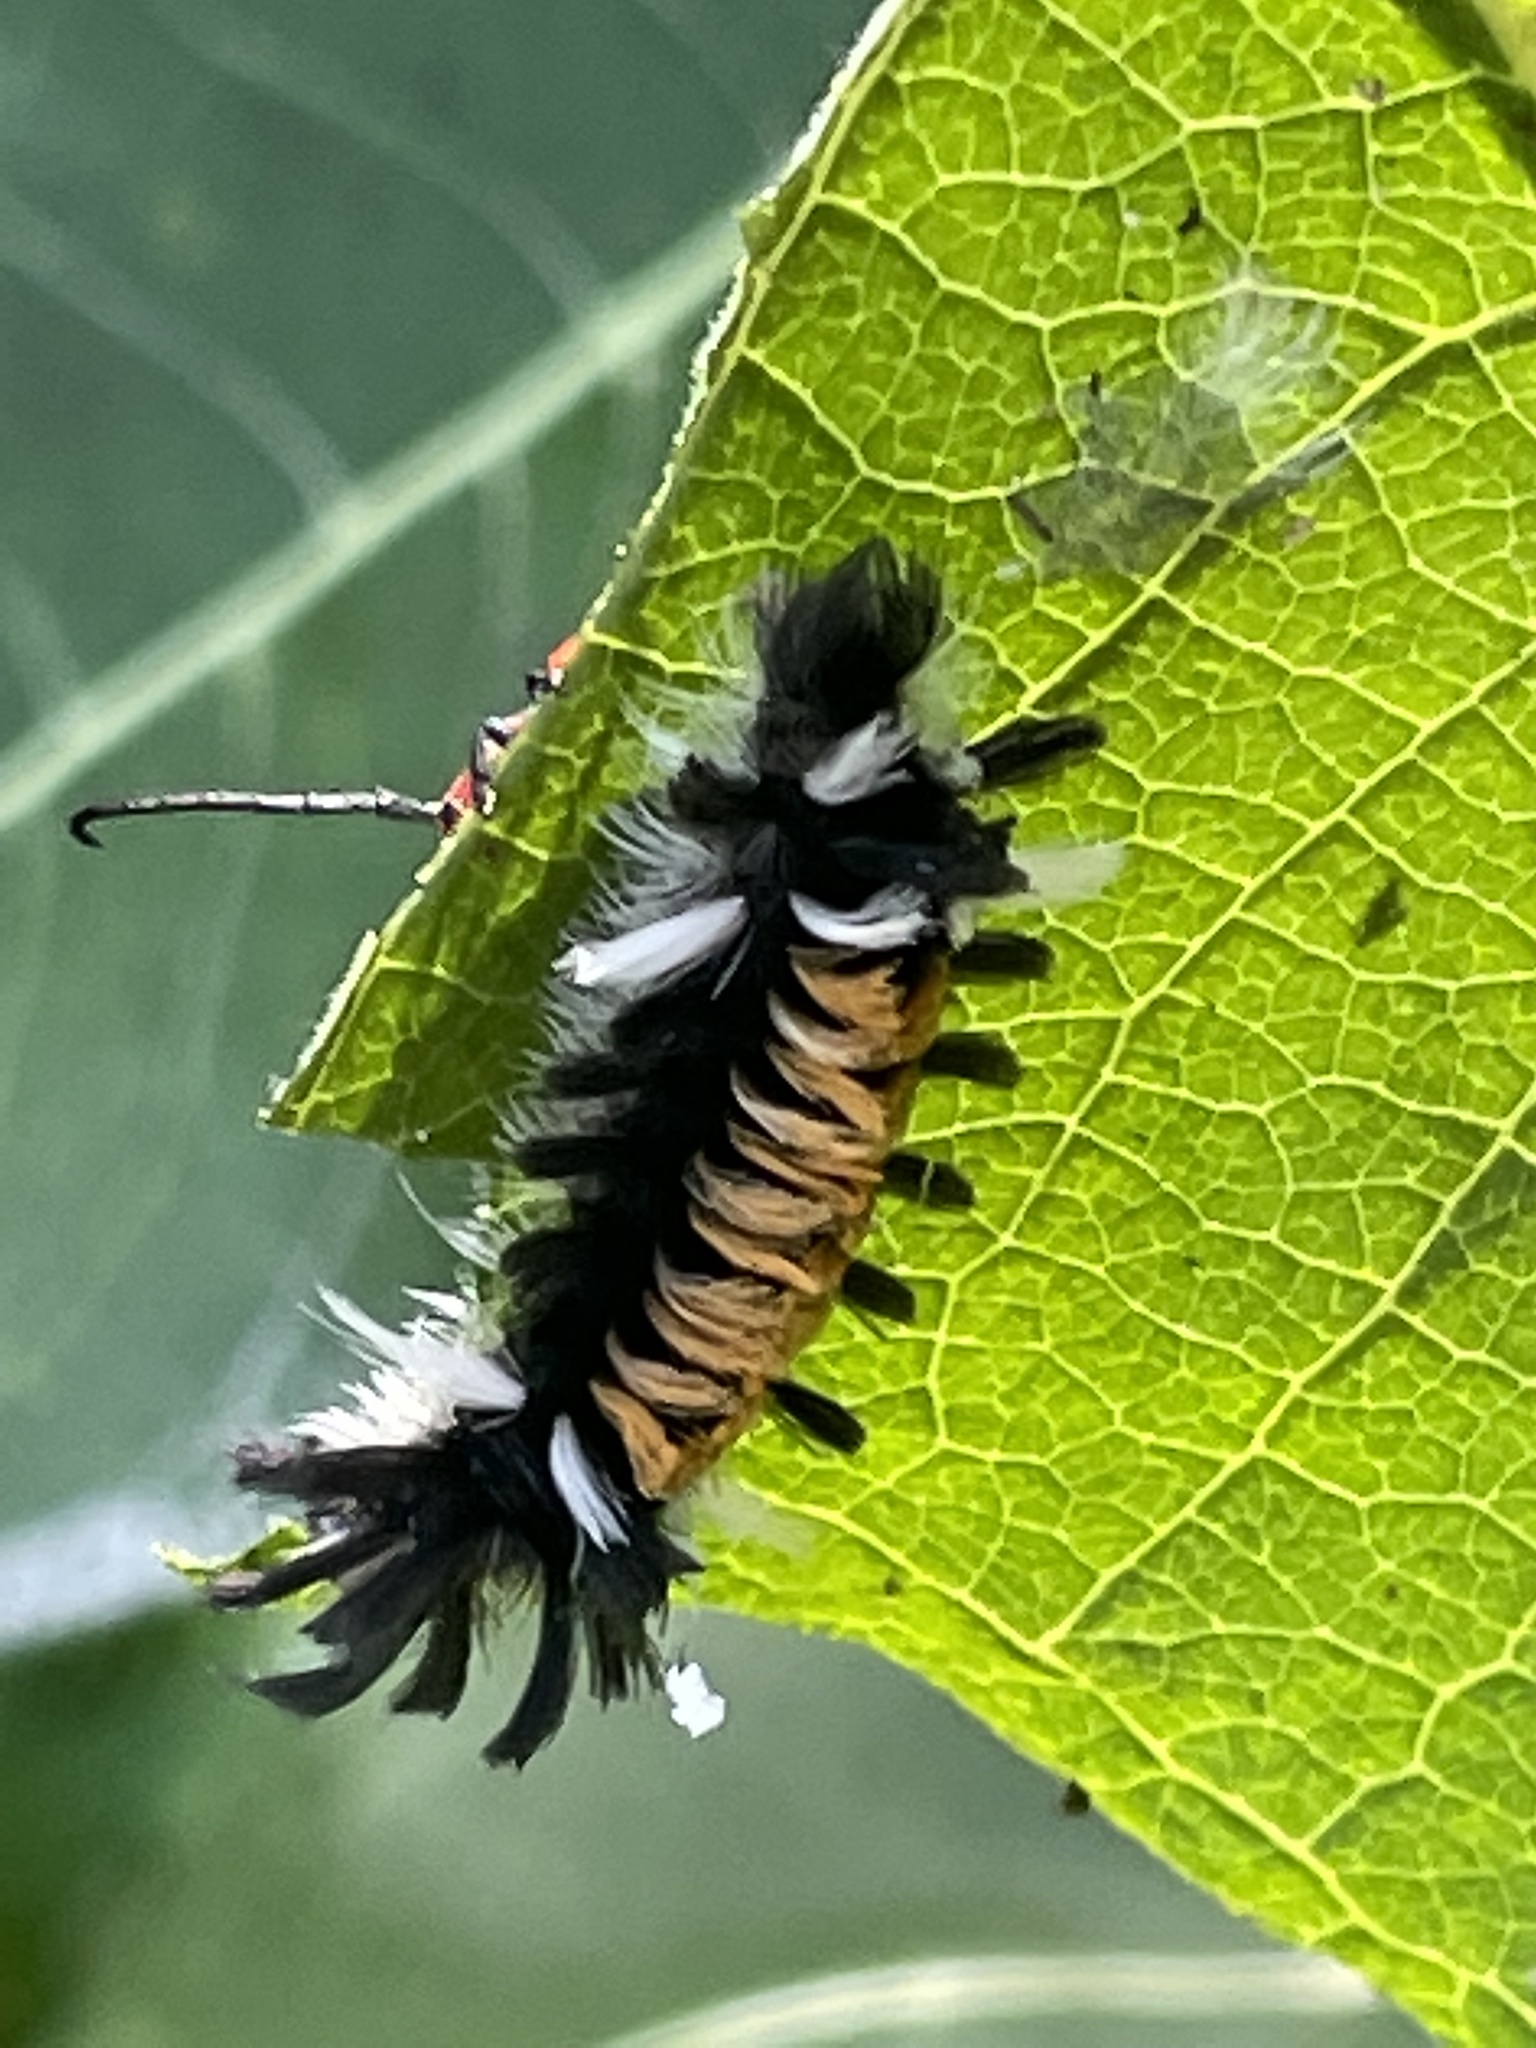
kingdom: Animalia
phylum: Arthropoda
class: Insecta
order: Lepidoptera
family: Erebidae
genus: Euchaetes
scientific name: Euchaetes egle
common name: Milkweed tussock moth
